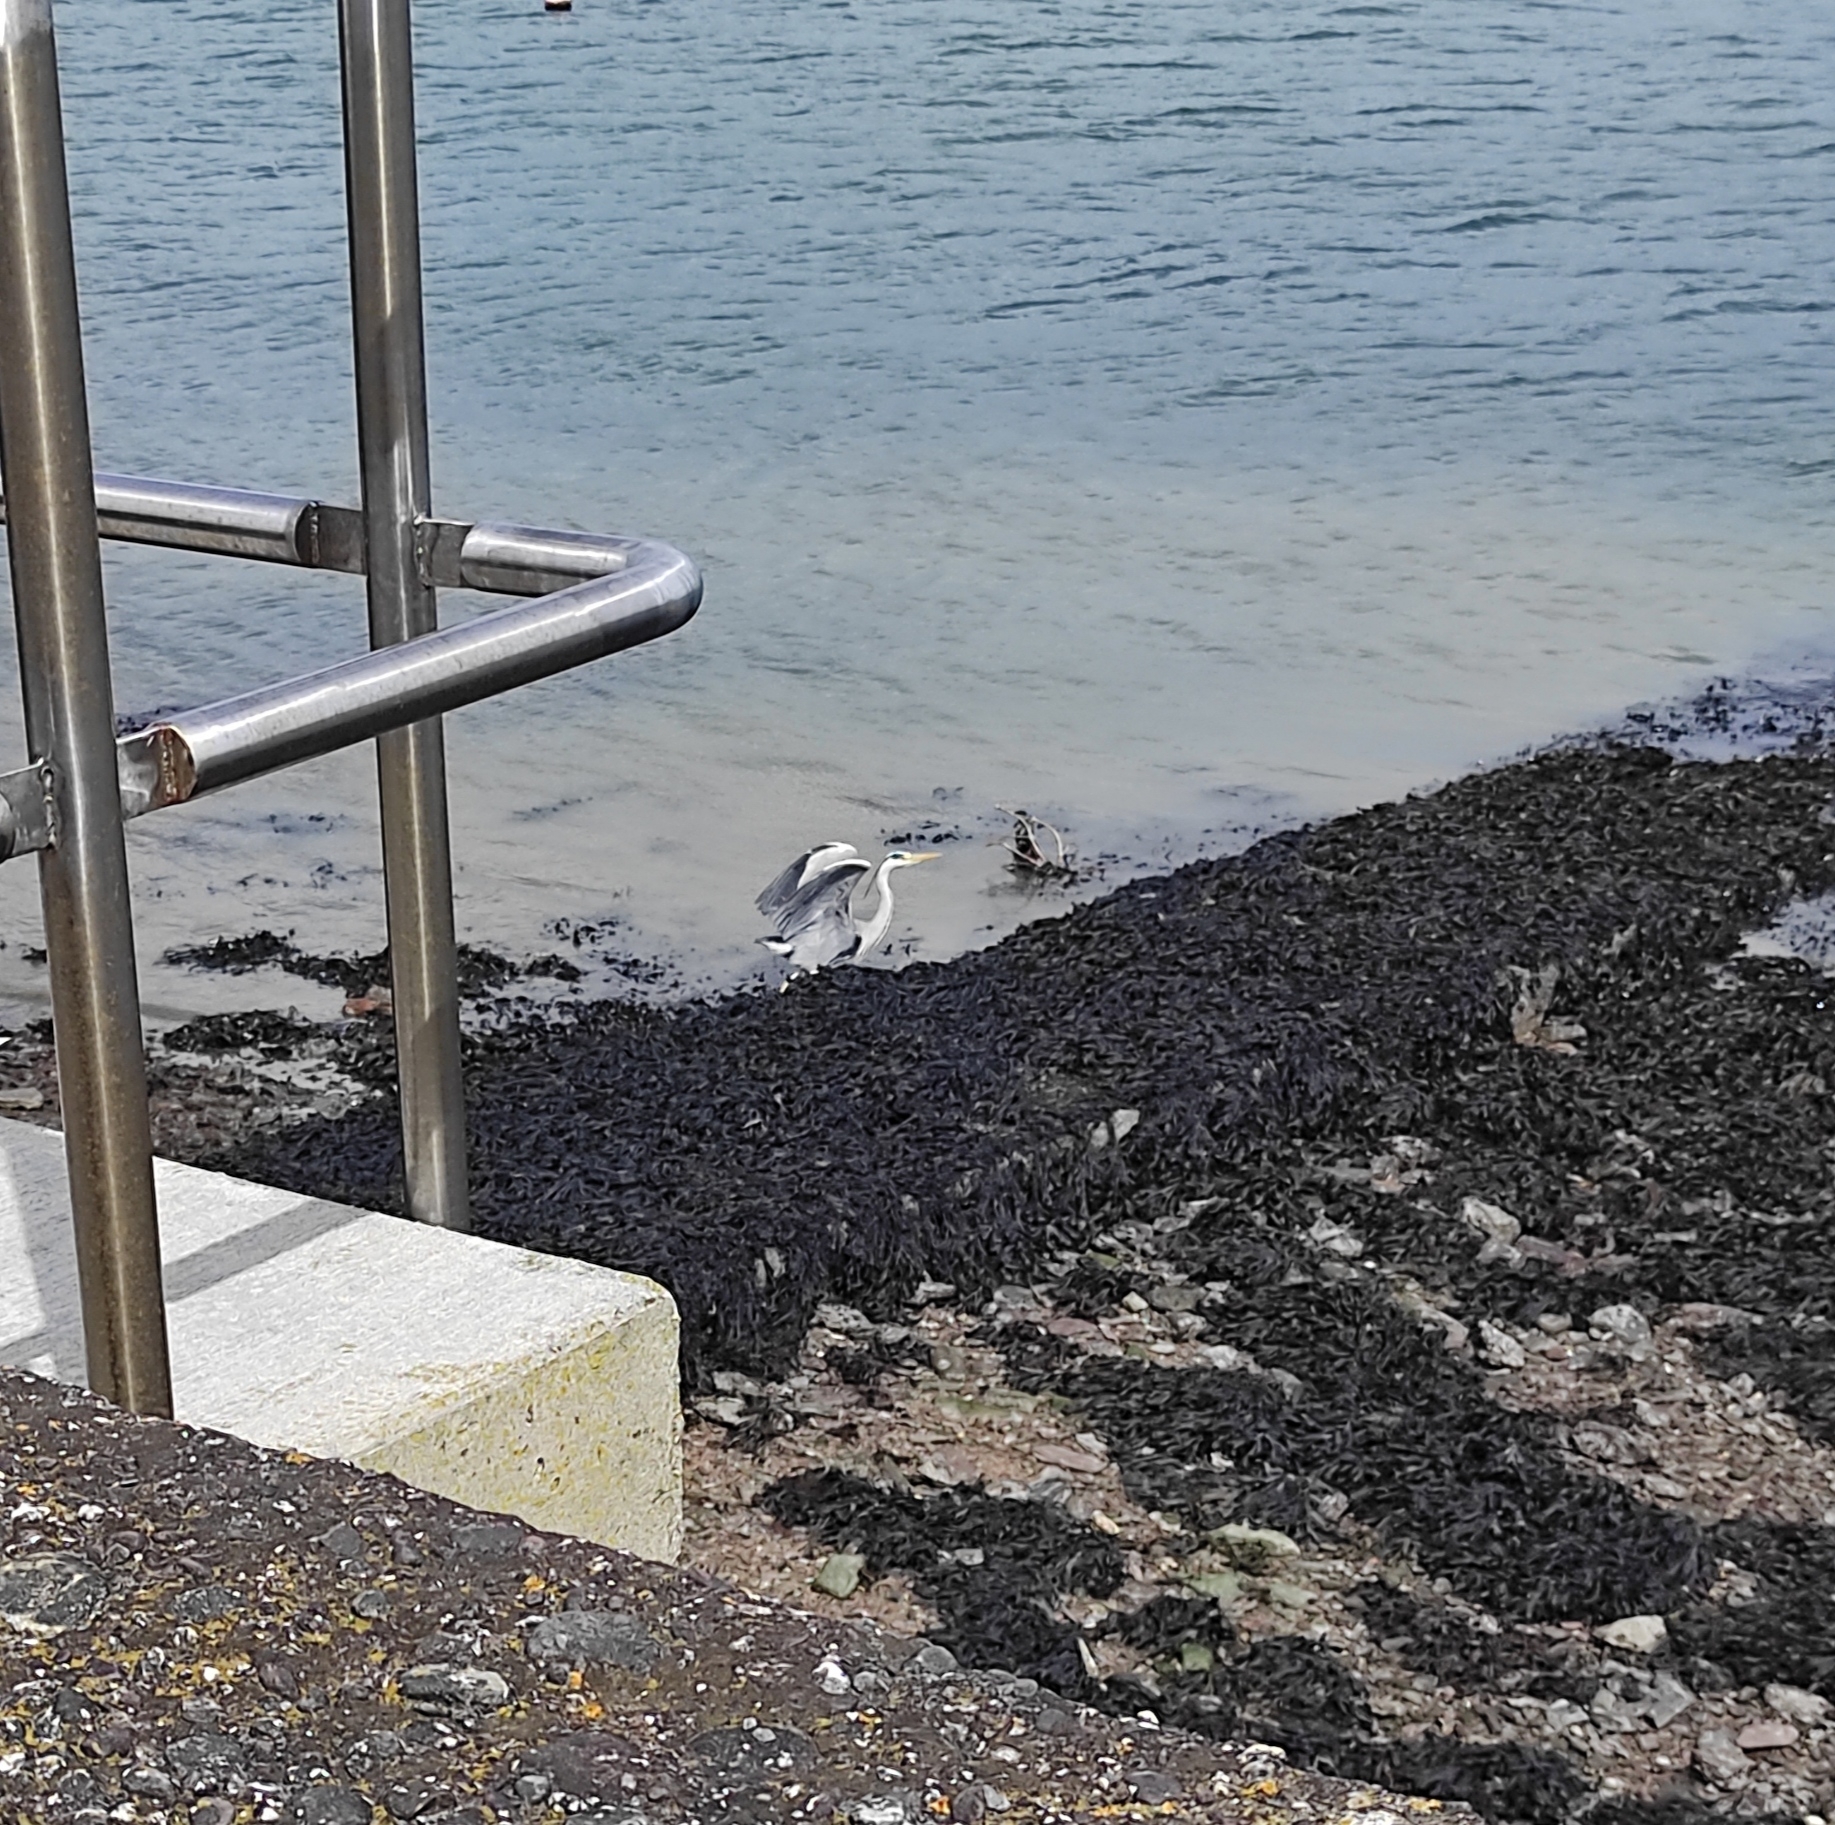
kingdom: Animalia
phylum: Chordata
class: Aves
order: Pelecaniformes
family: Ardeidae
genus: Ardea
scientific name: Ardea cinerea
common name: Grey heron
